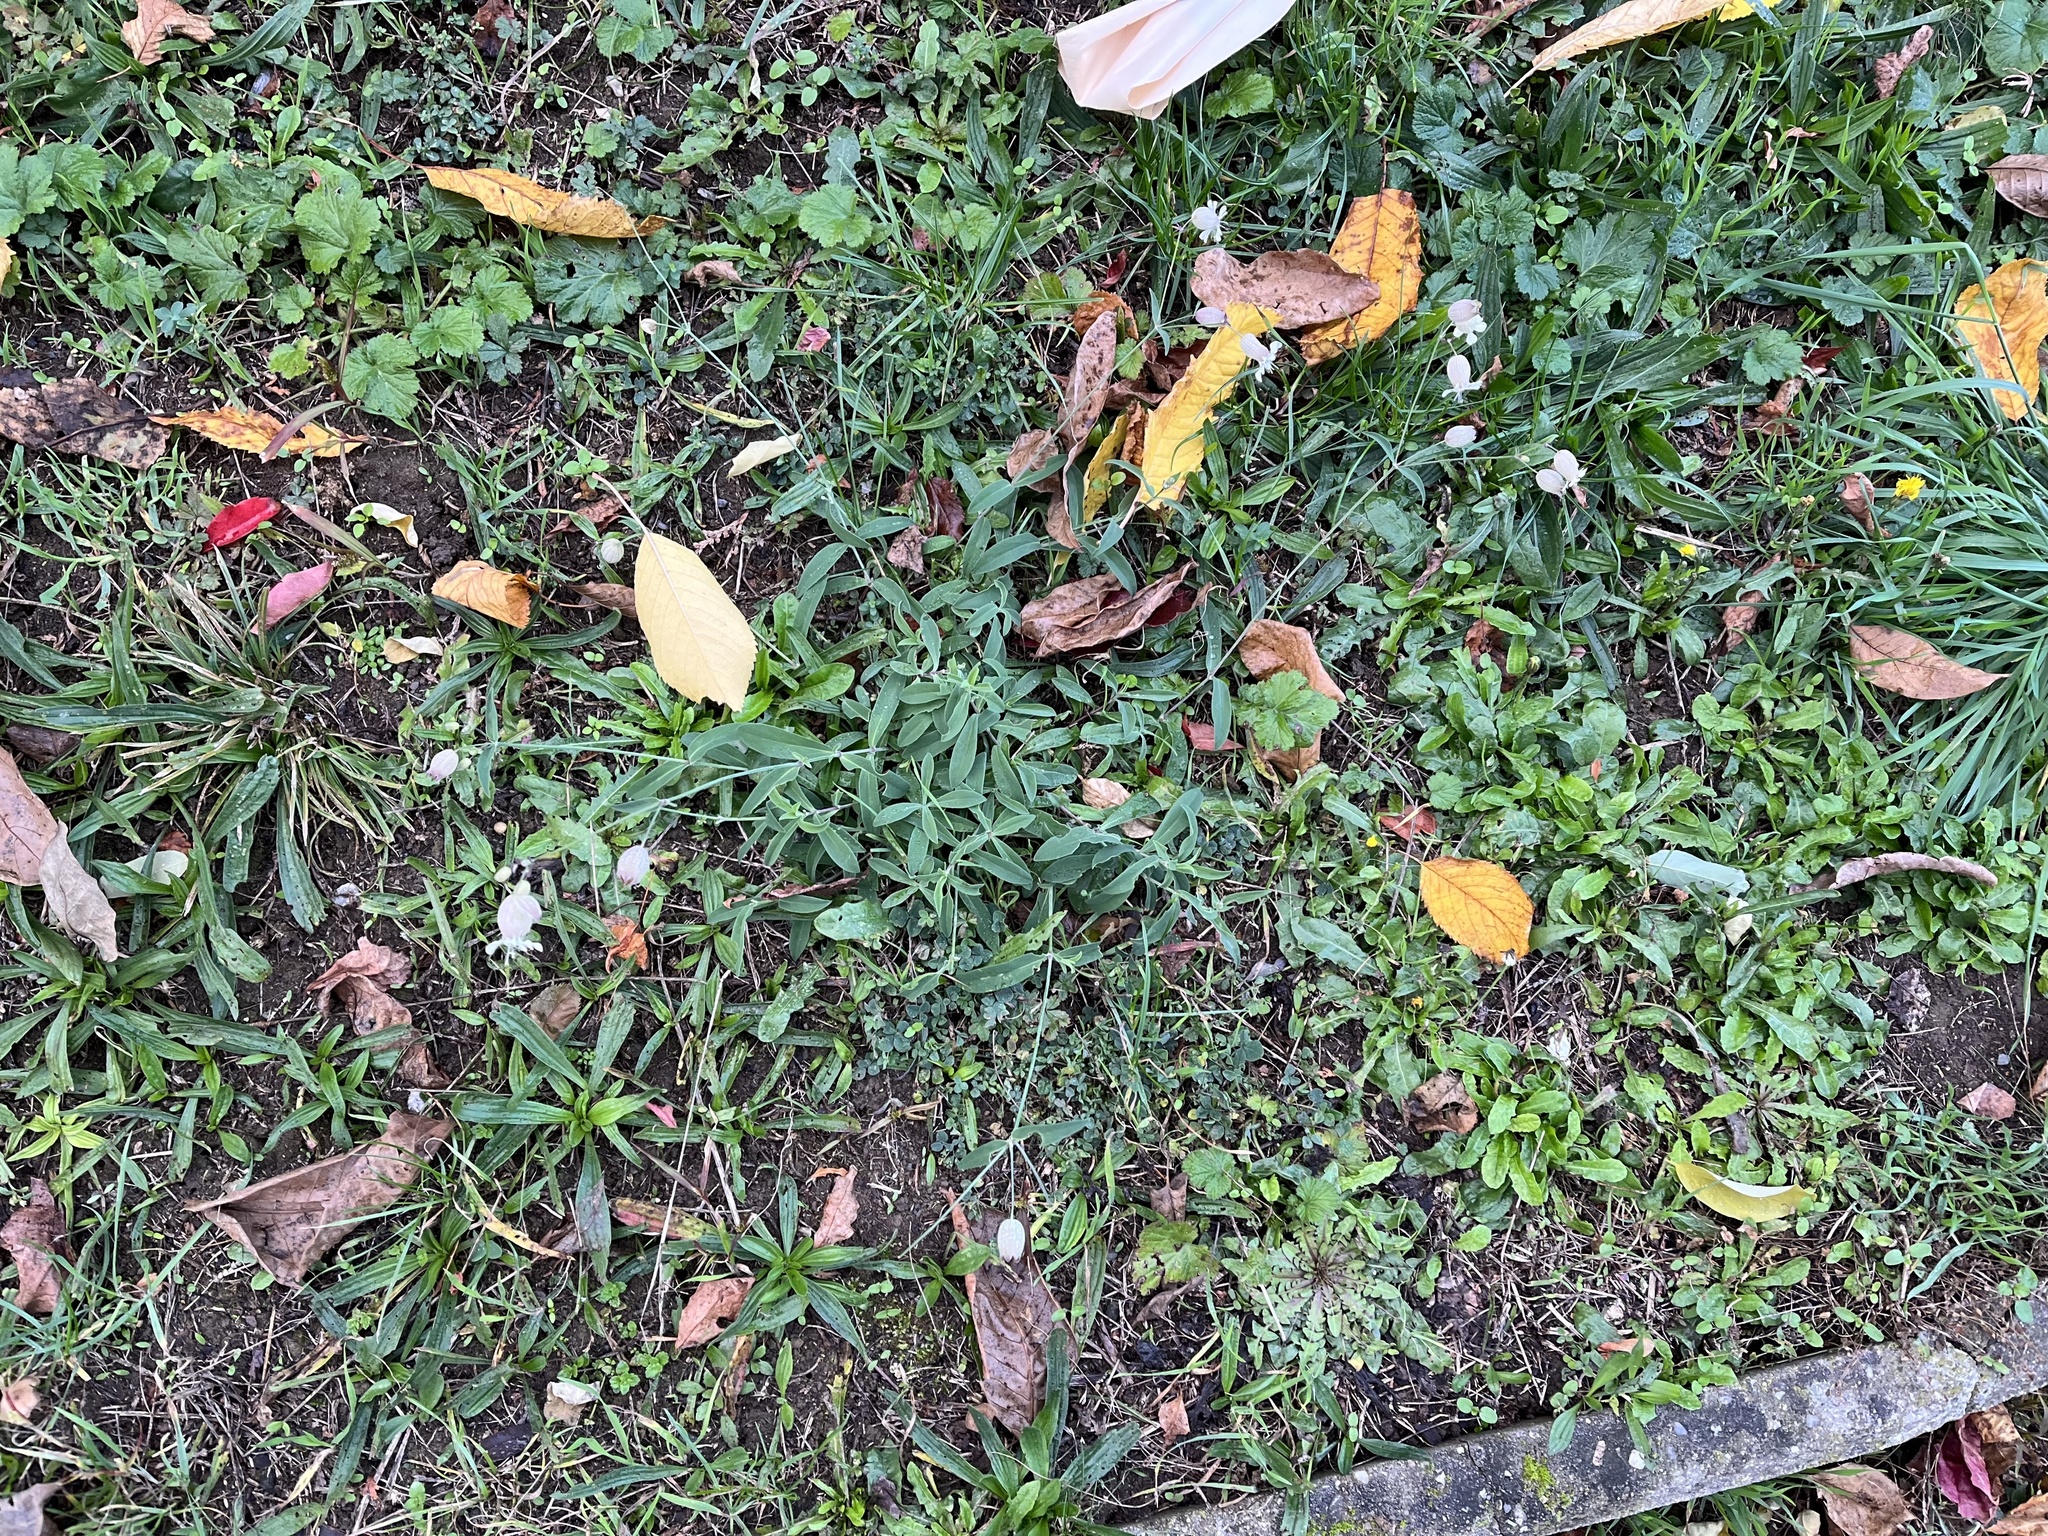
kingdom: Plantae
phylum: Tracheophyta
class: Magnoliopsida
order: Caryophyllales
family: Caryophyllaceae
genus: Silene
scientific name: Silene vulgaris
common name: Bladder campion
